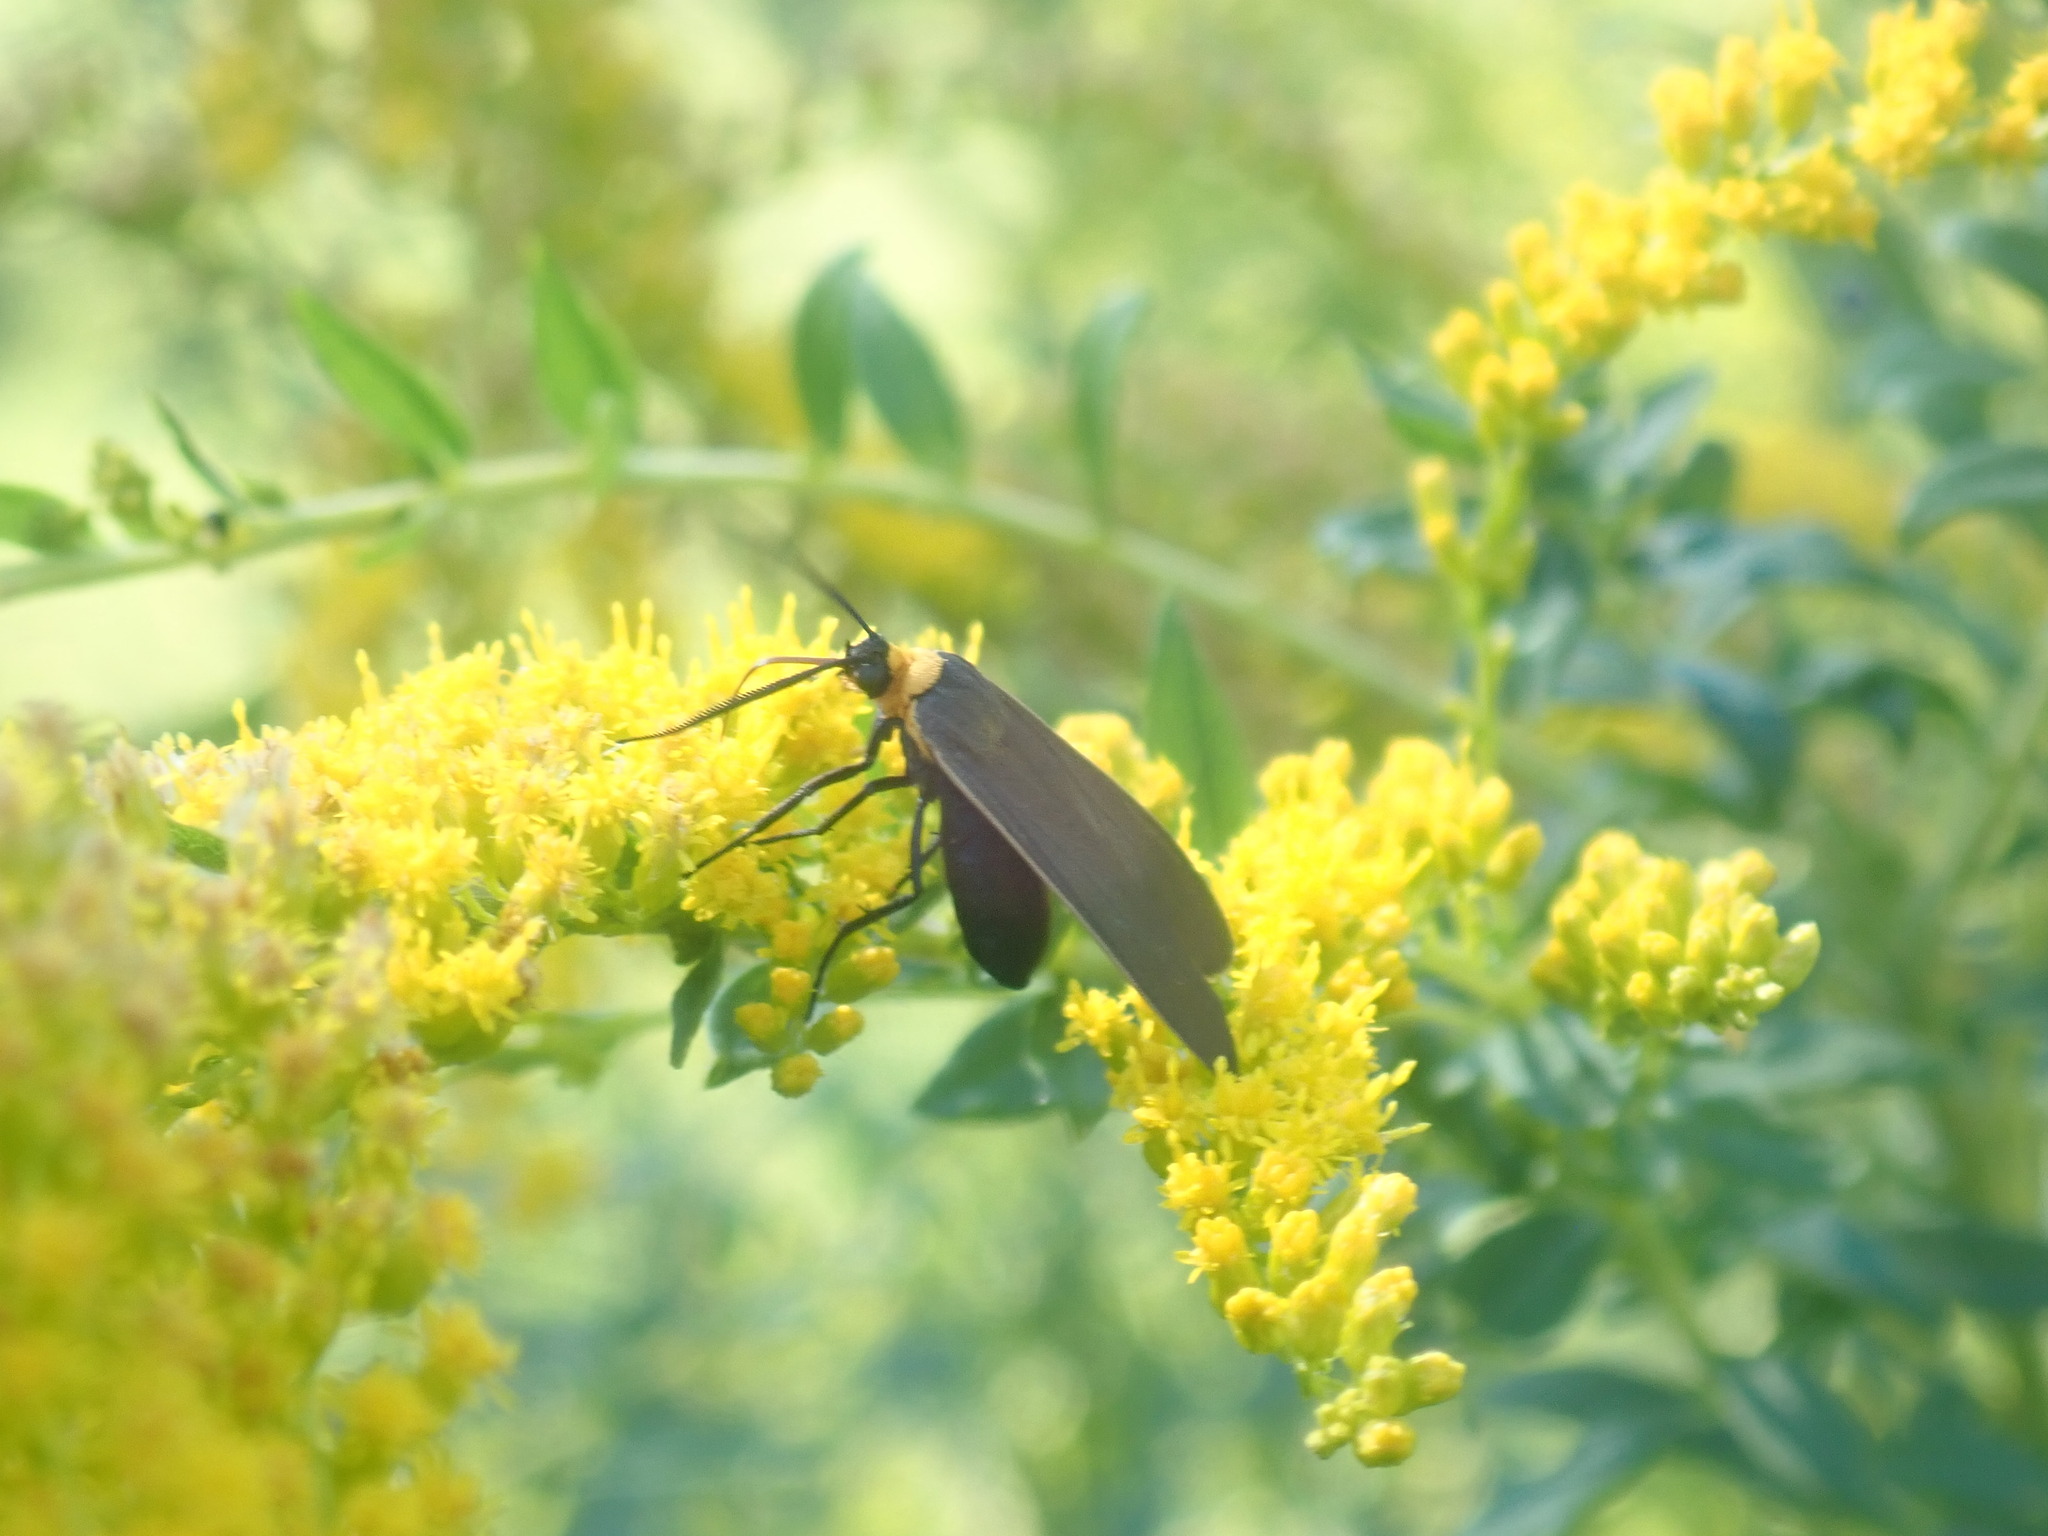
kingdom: Animalia
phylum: Arthropoda
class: Insecta
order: Lepidoptera
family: Erebidae
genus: Cisseps
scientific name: Cisseps fulvicollis
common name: Yellow-collared scape moth
